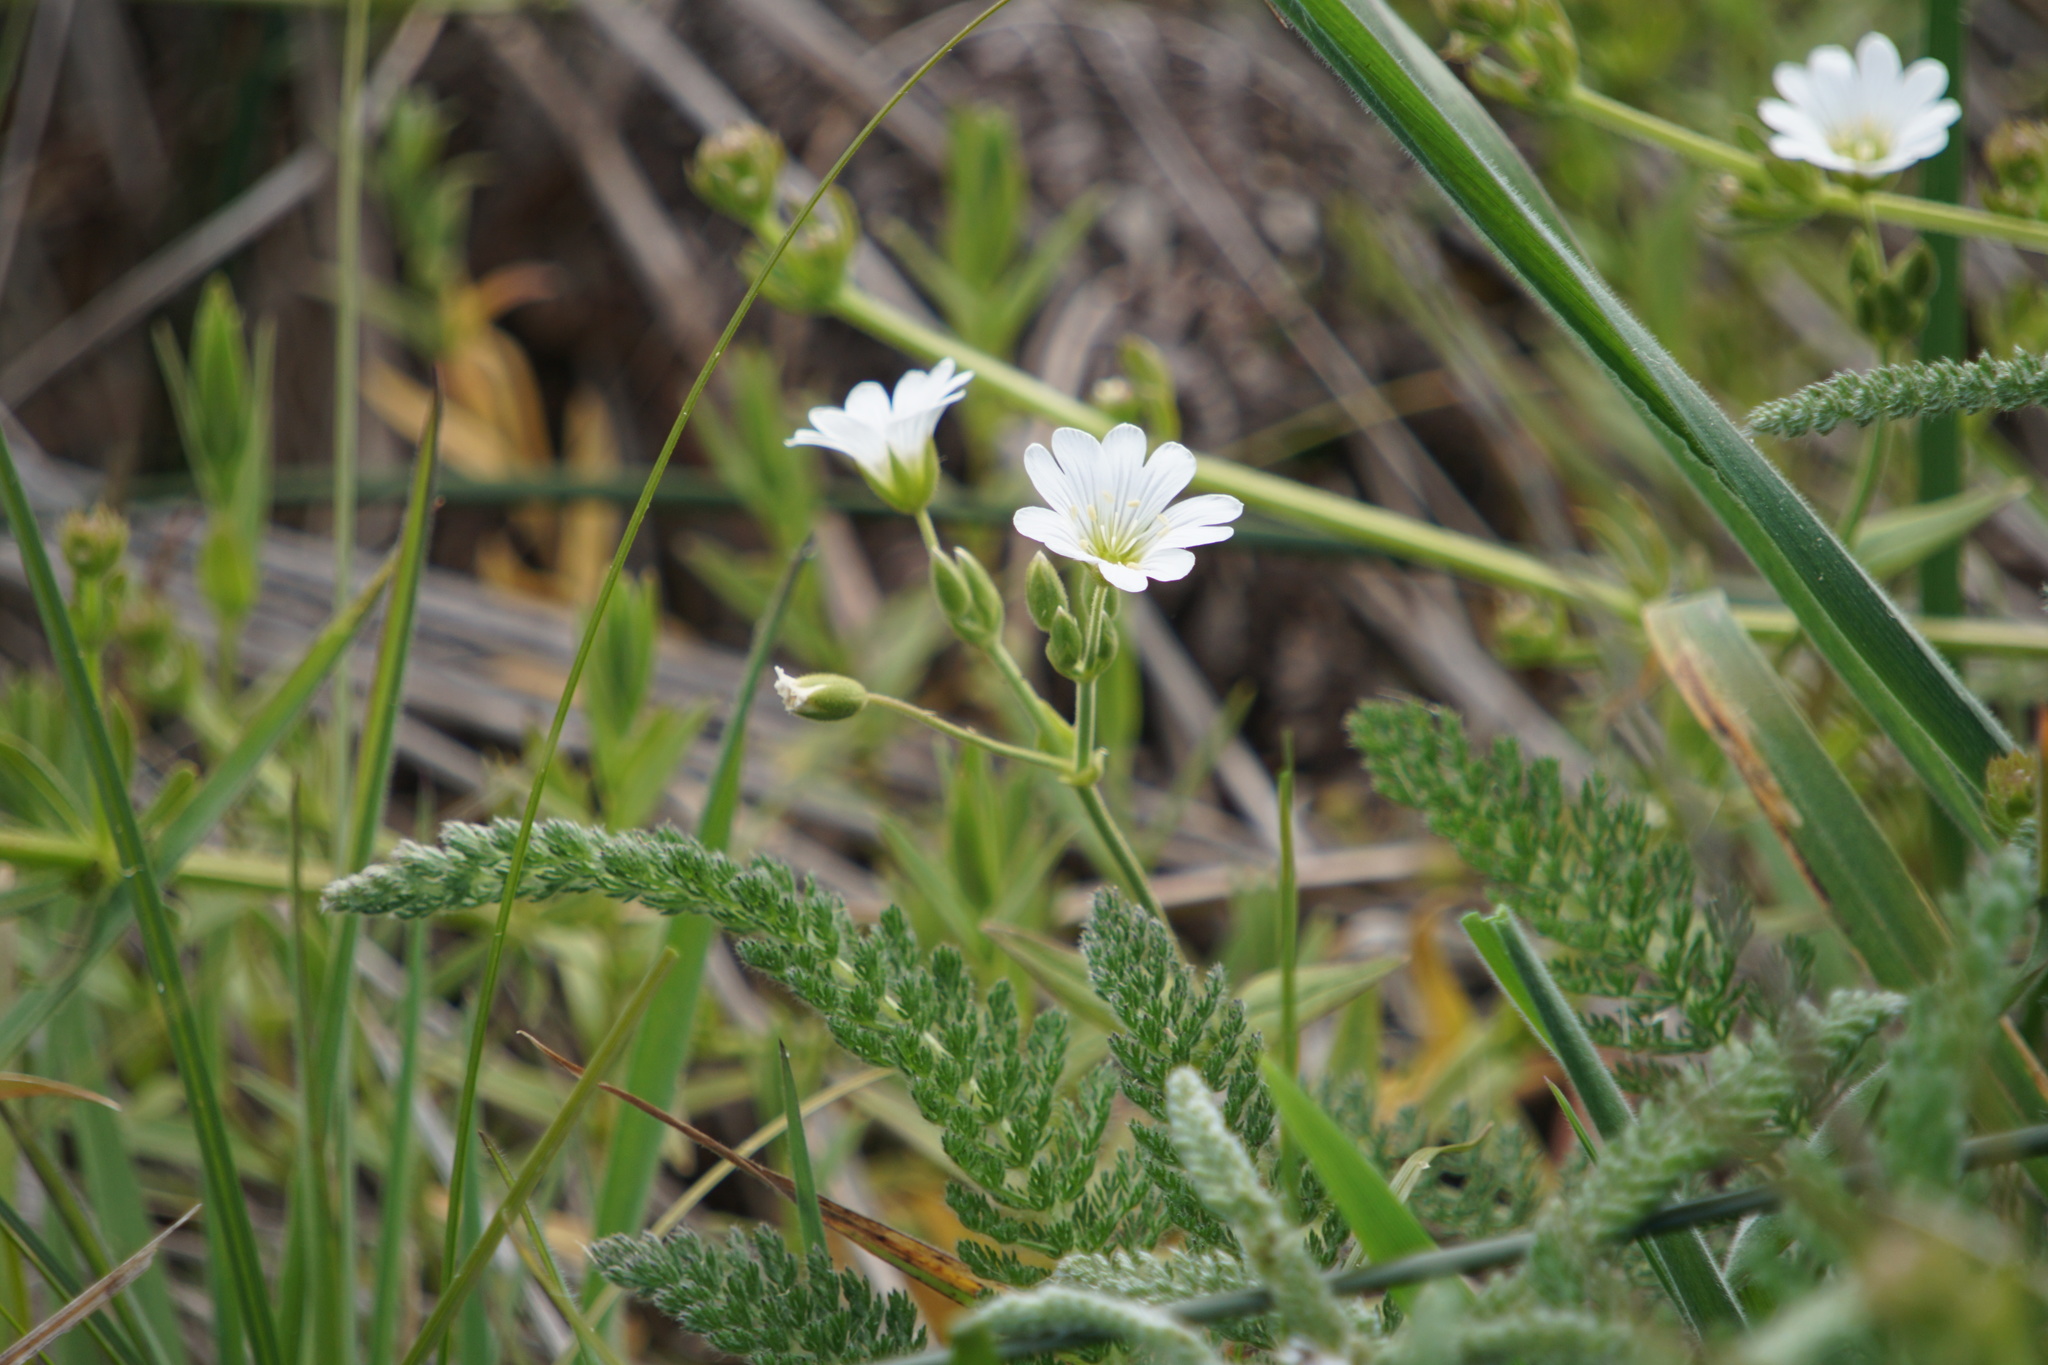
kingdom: Plantae
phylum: Tracheophyta
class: Magnoliopsida
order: Caryophyllales
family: Caryophyllaceae
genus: Cerastium
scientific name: Cerastium arvense
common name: Field mouse-ear
